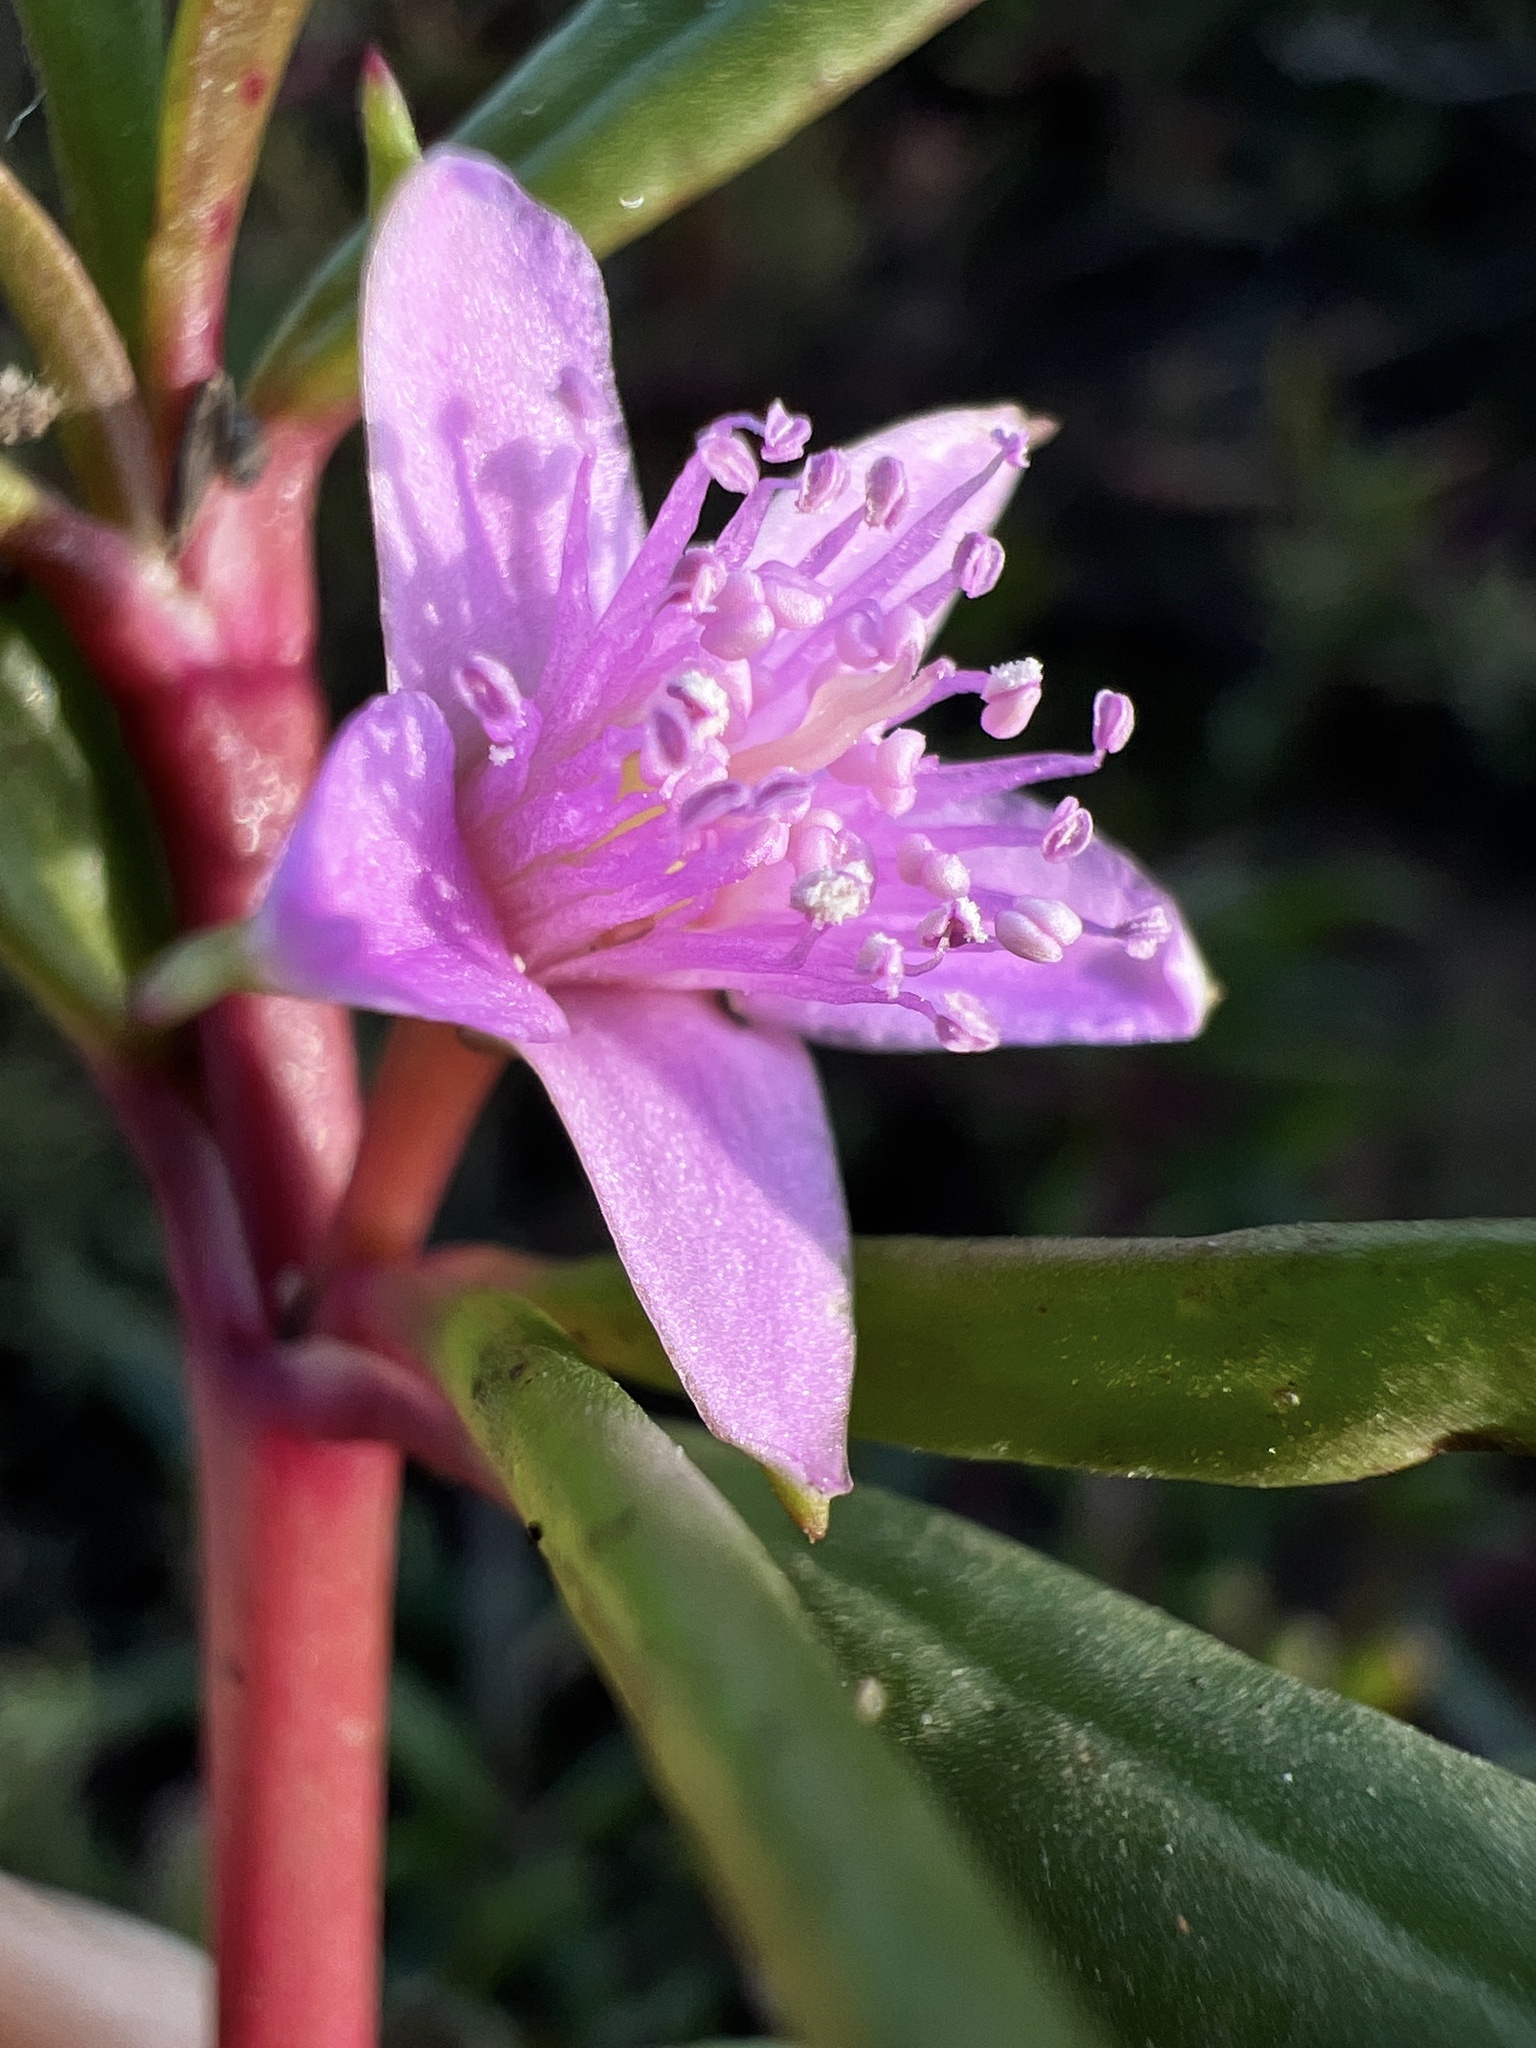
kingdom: Plantae
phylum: Tracheophyta
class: Magnoliopsida
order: Caryophyllales
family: Aizoaceae
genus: Sesuvium
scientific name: Sesuvium portulacastrum
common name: Sea-purslane
